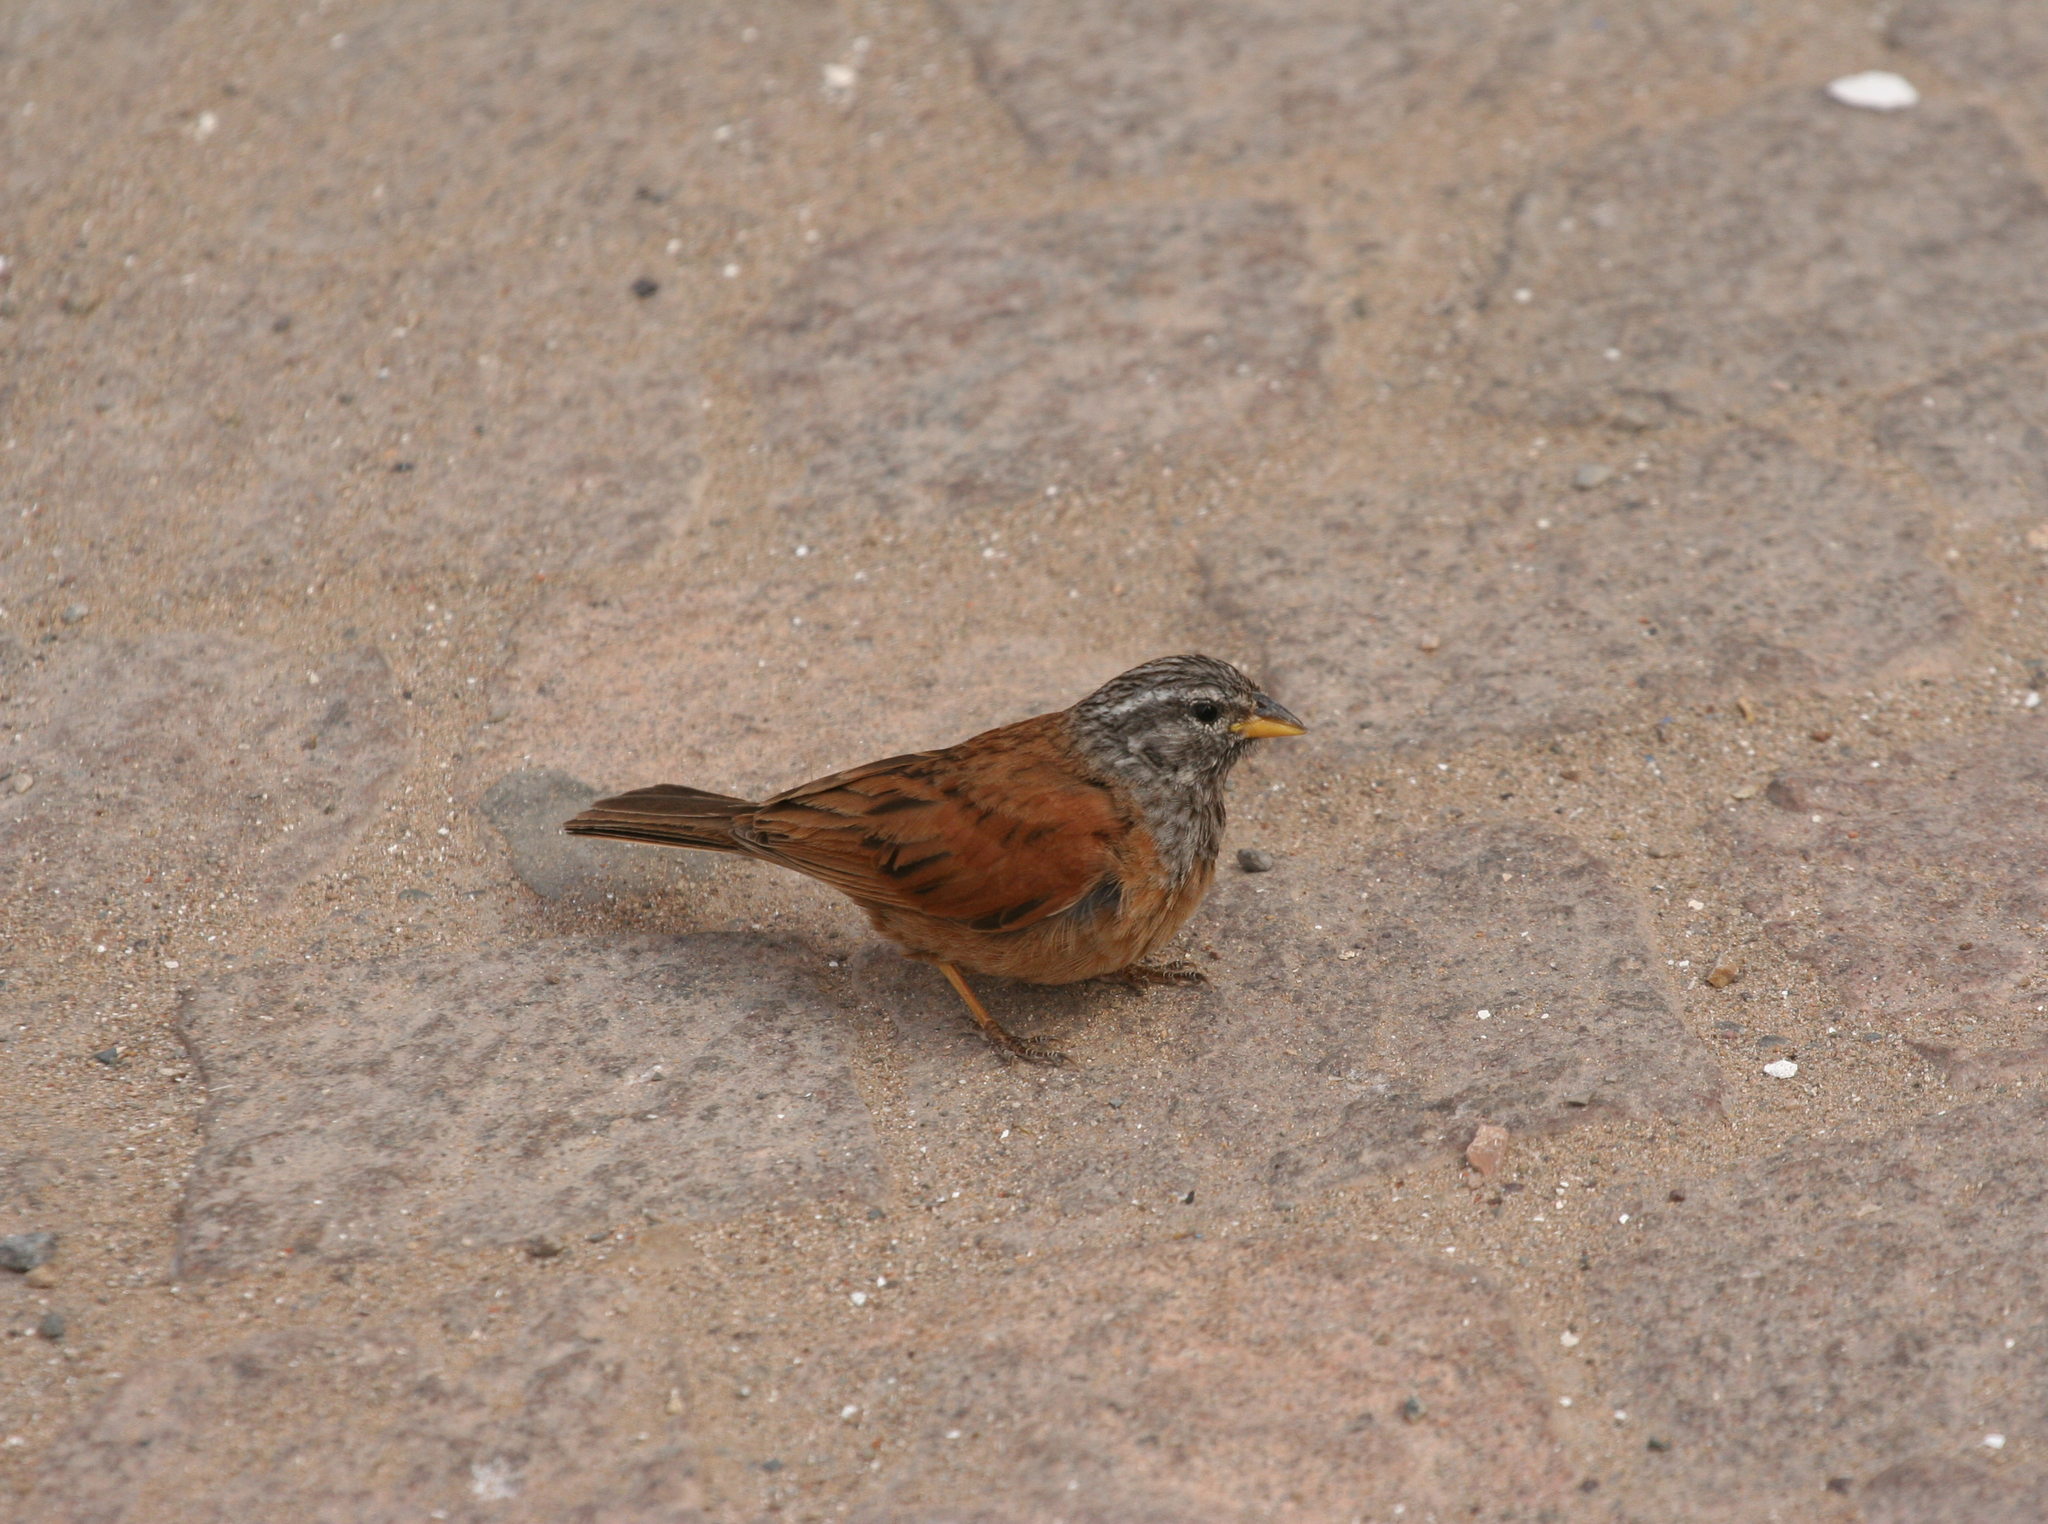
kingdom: Animalia
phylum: Chordata
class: Aves
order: Passeriformes
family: Emberizidae
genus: Emberiza
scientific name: Emberiza sahari
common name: House bunting
